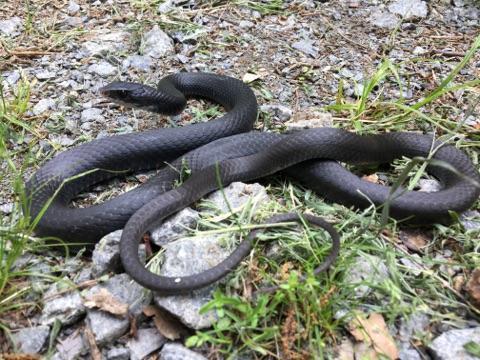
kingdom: Animalia
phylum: Chordata
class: Squamata
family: Colubridae
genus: Coluber
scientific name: Coluber constrictor
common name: Eastern racer
